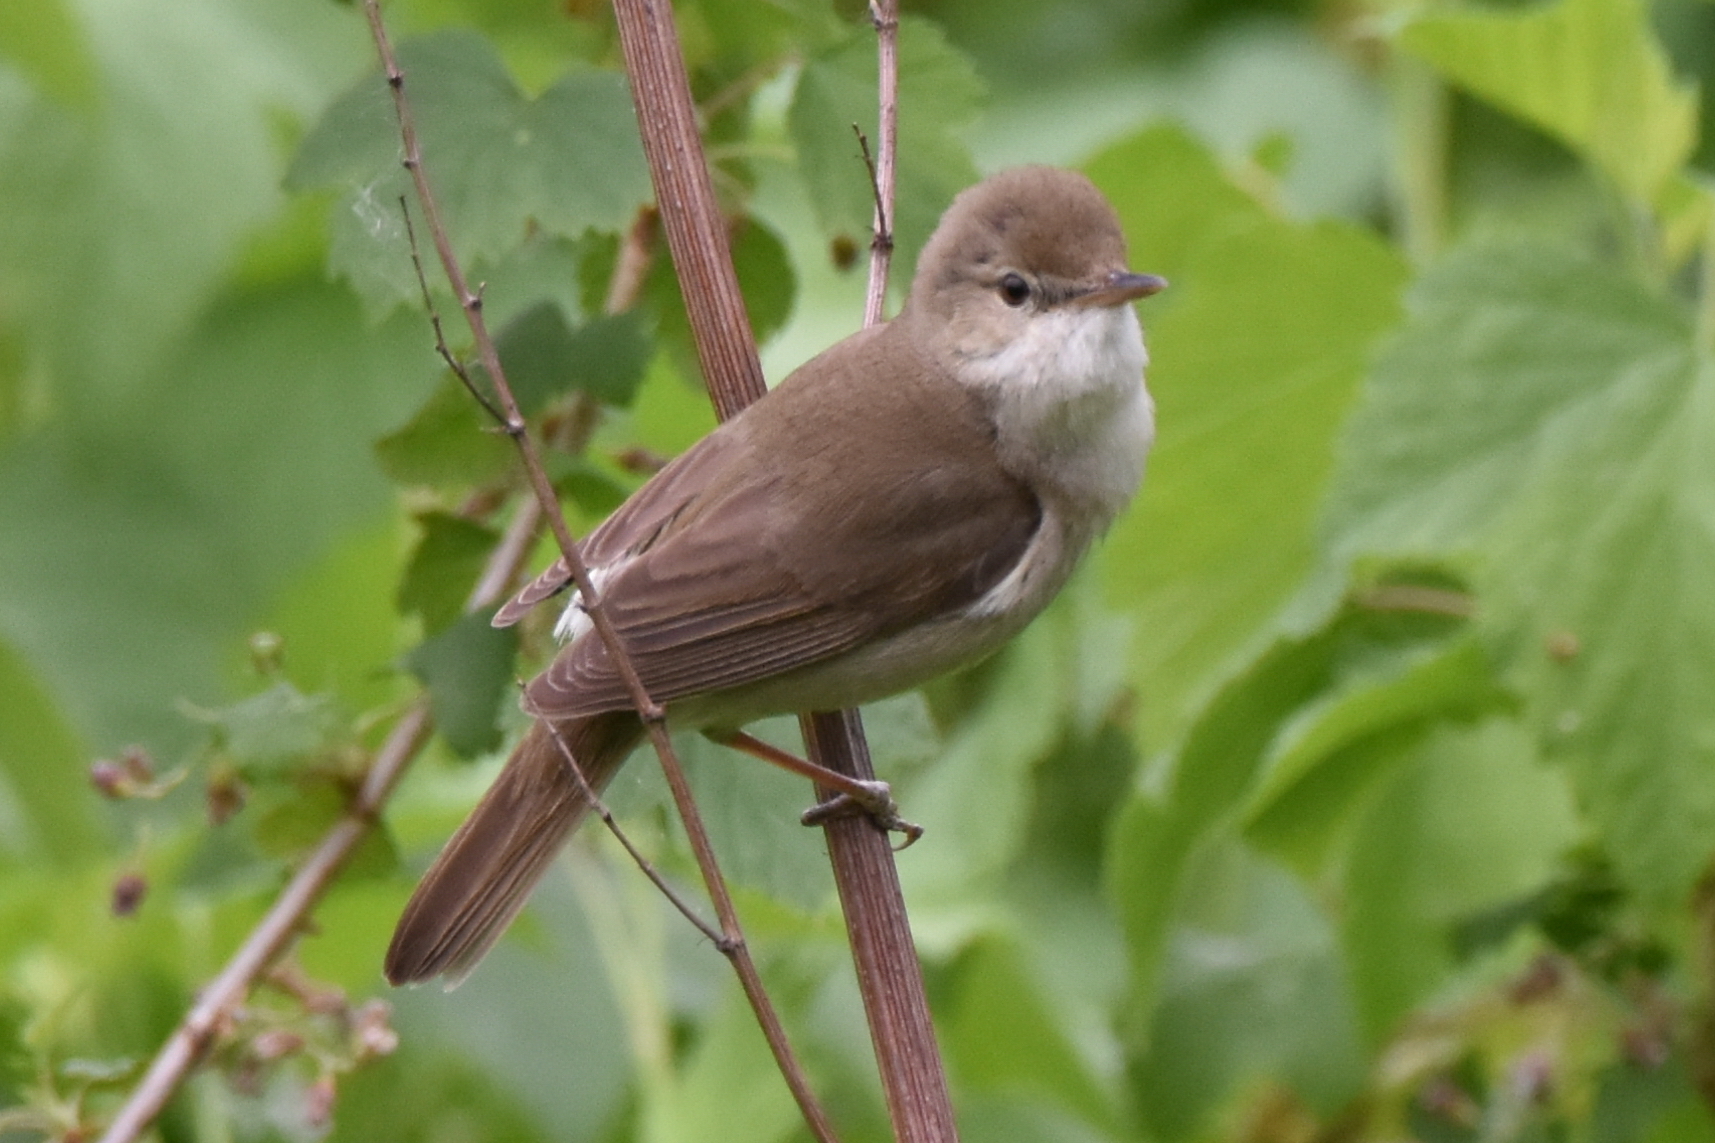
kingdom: Animalia
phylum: Chordata
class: Aves
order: Passeriformes
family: Acrocephalidae
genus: Acrocephalus
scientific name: Acrocephalus dumetorum
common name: Blyth's reed warbler
